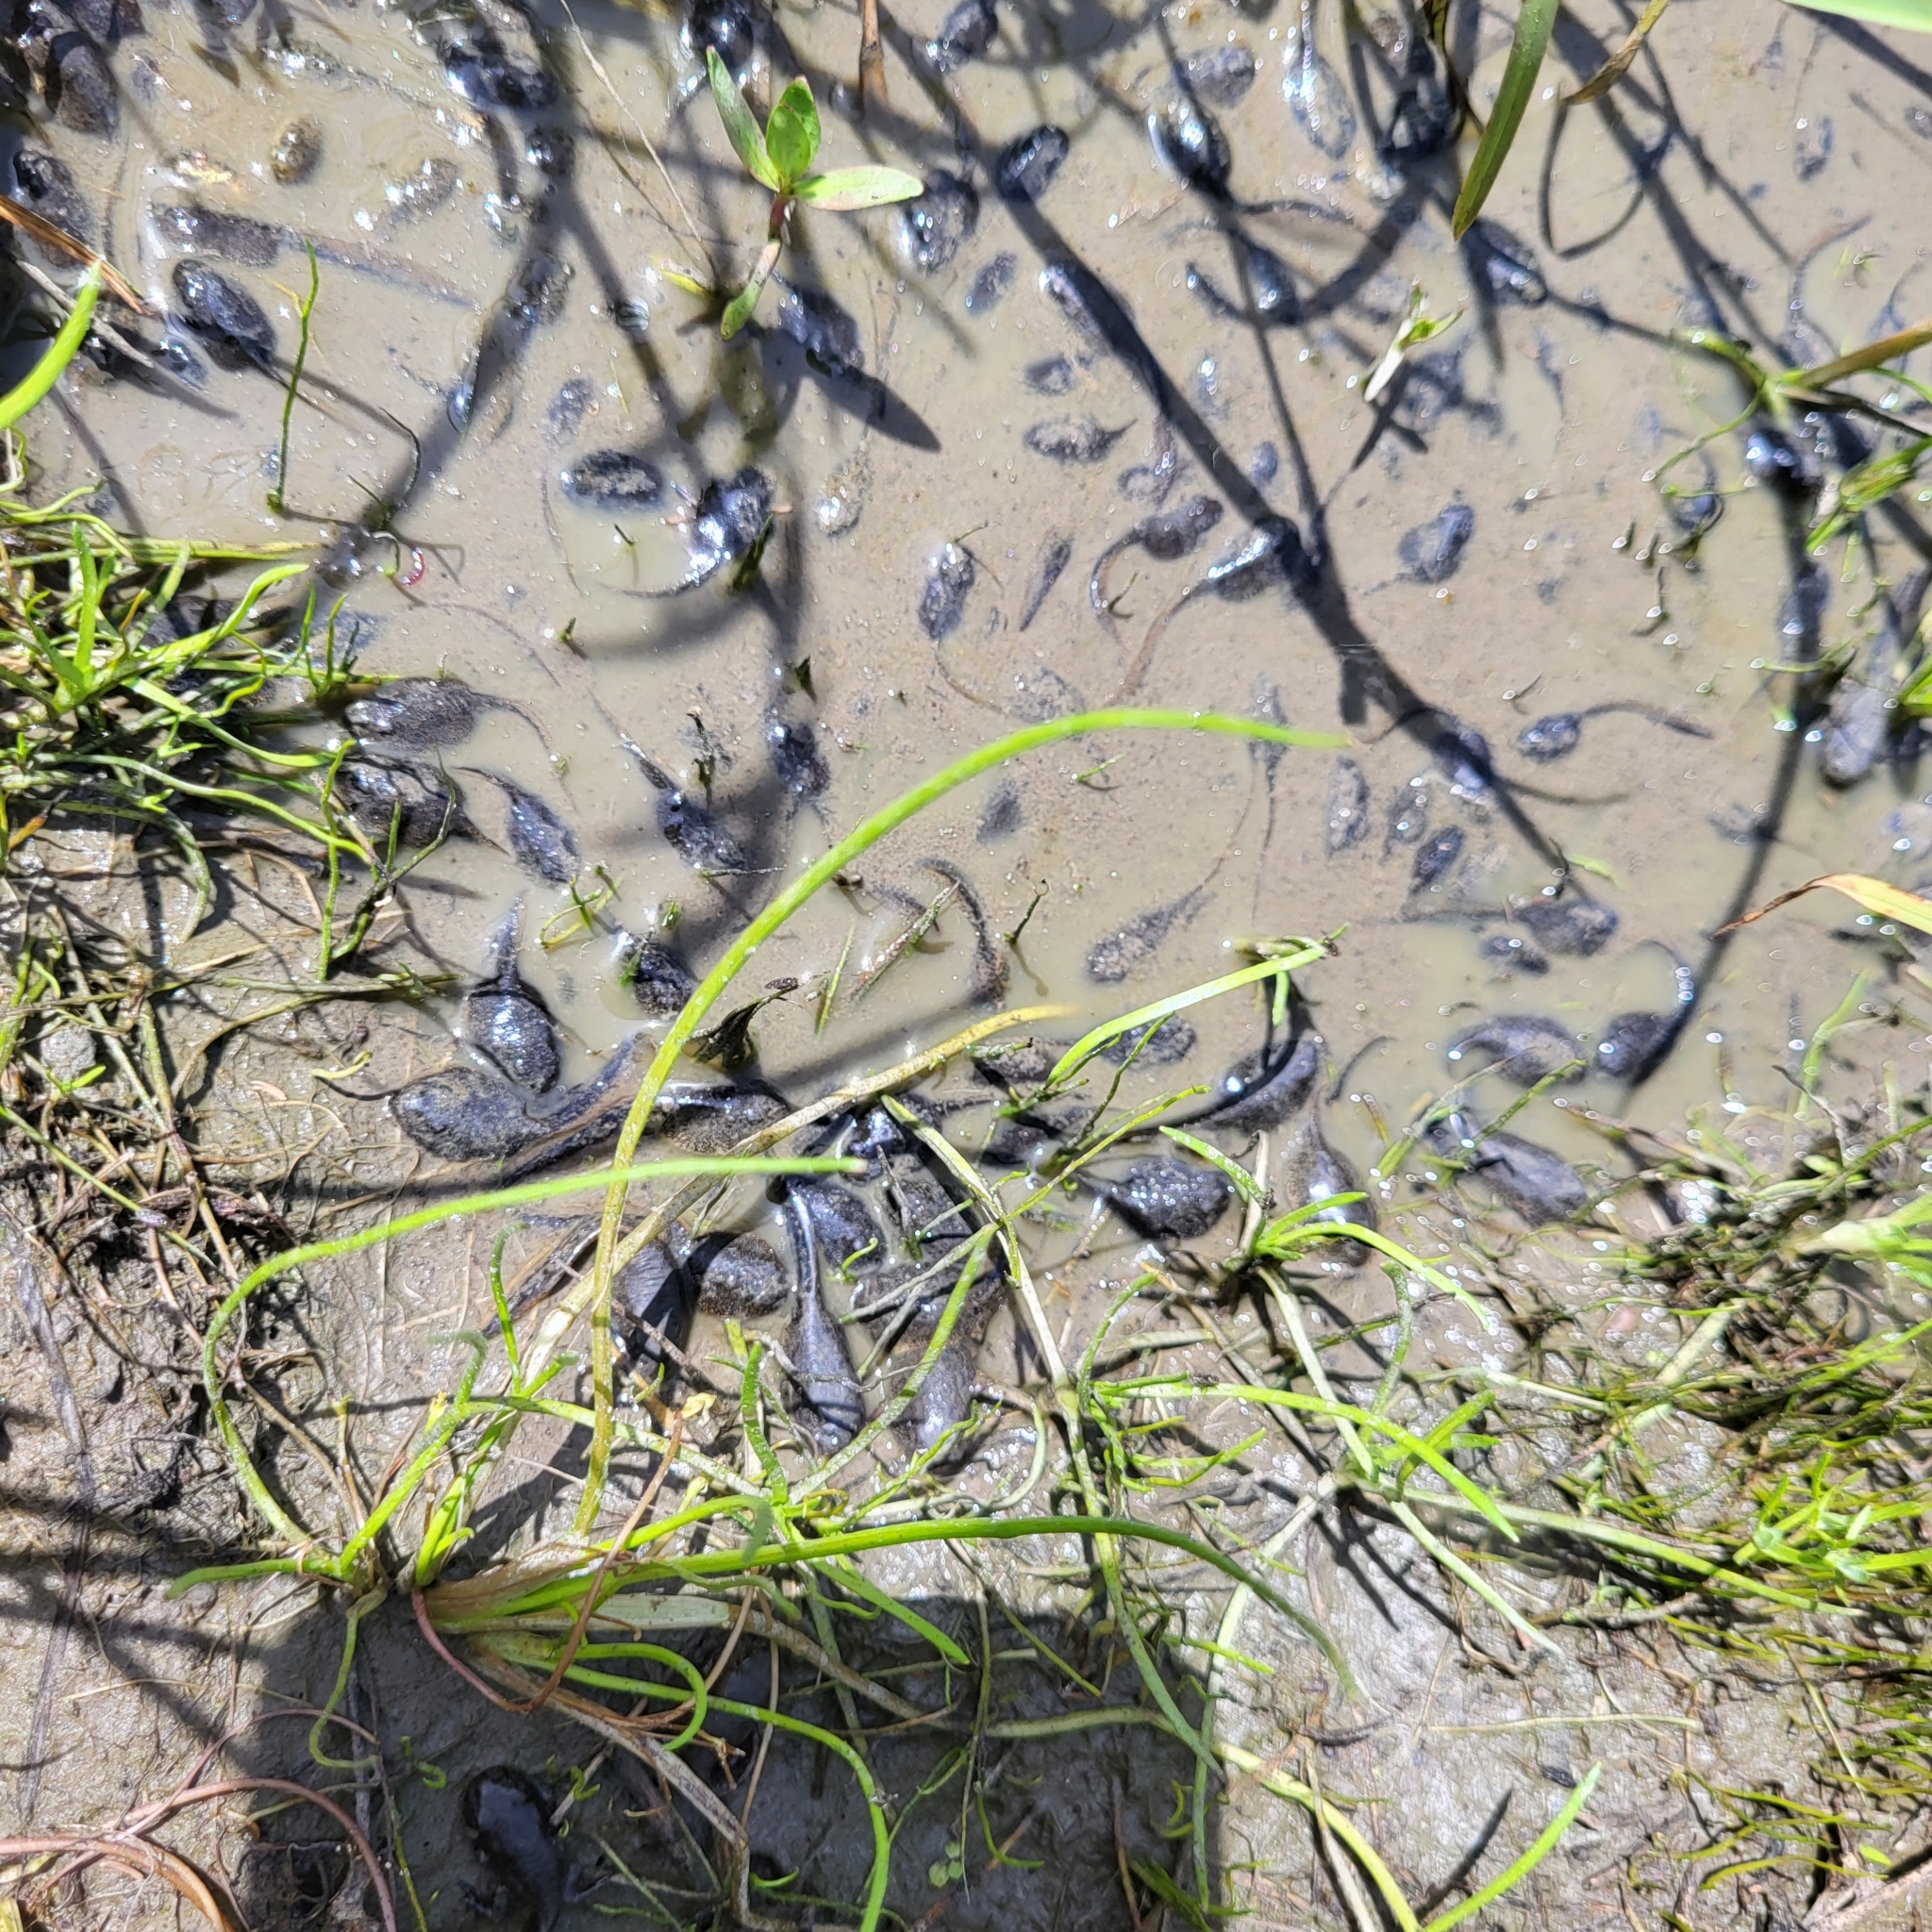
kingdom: Animalia
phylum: Chordata
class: Amphibia
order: Anura
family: Bufonidae
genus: Anaxyrus
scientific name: Anaxyrus boreas
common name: Western toad
